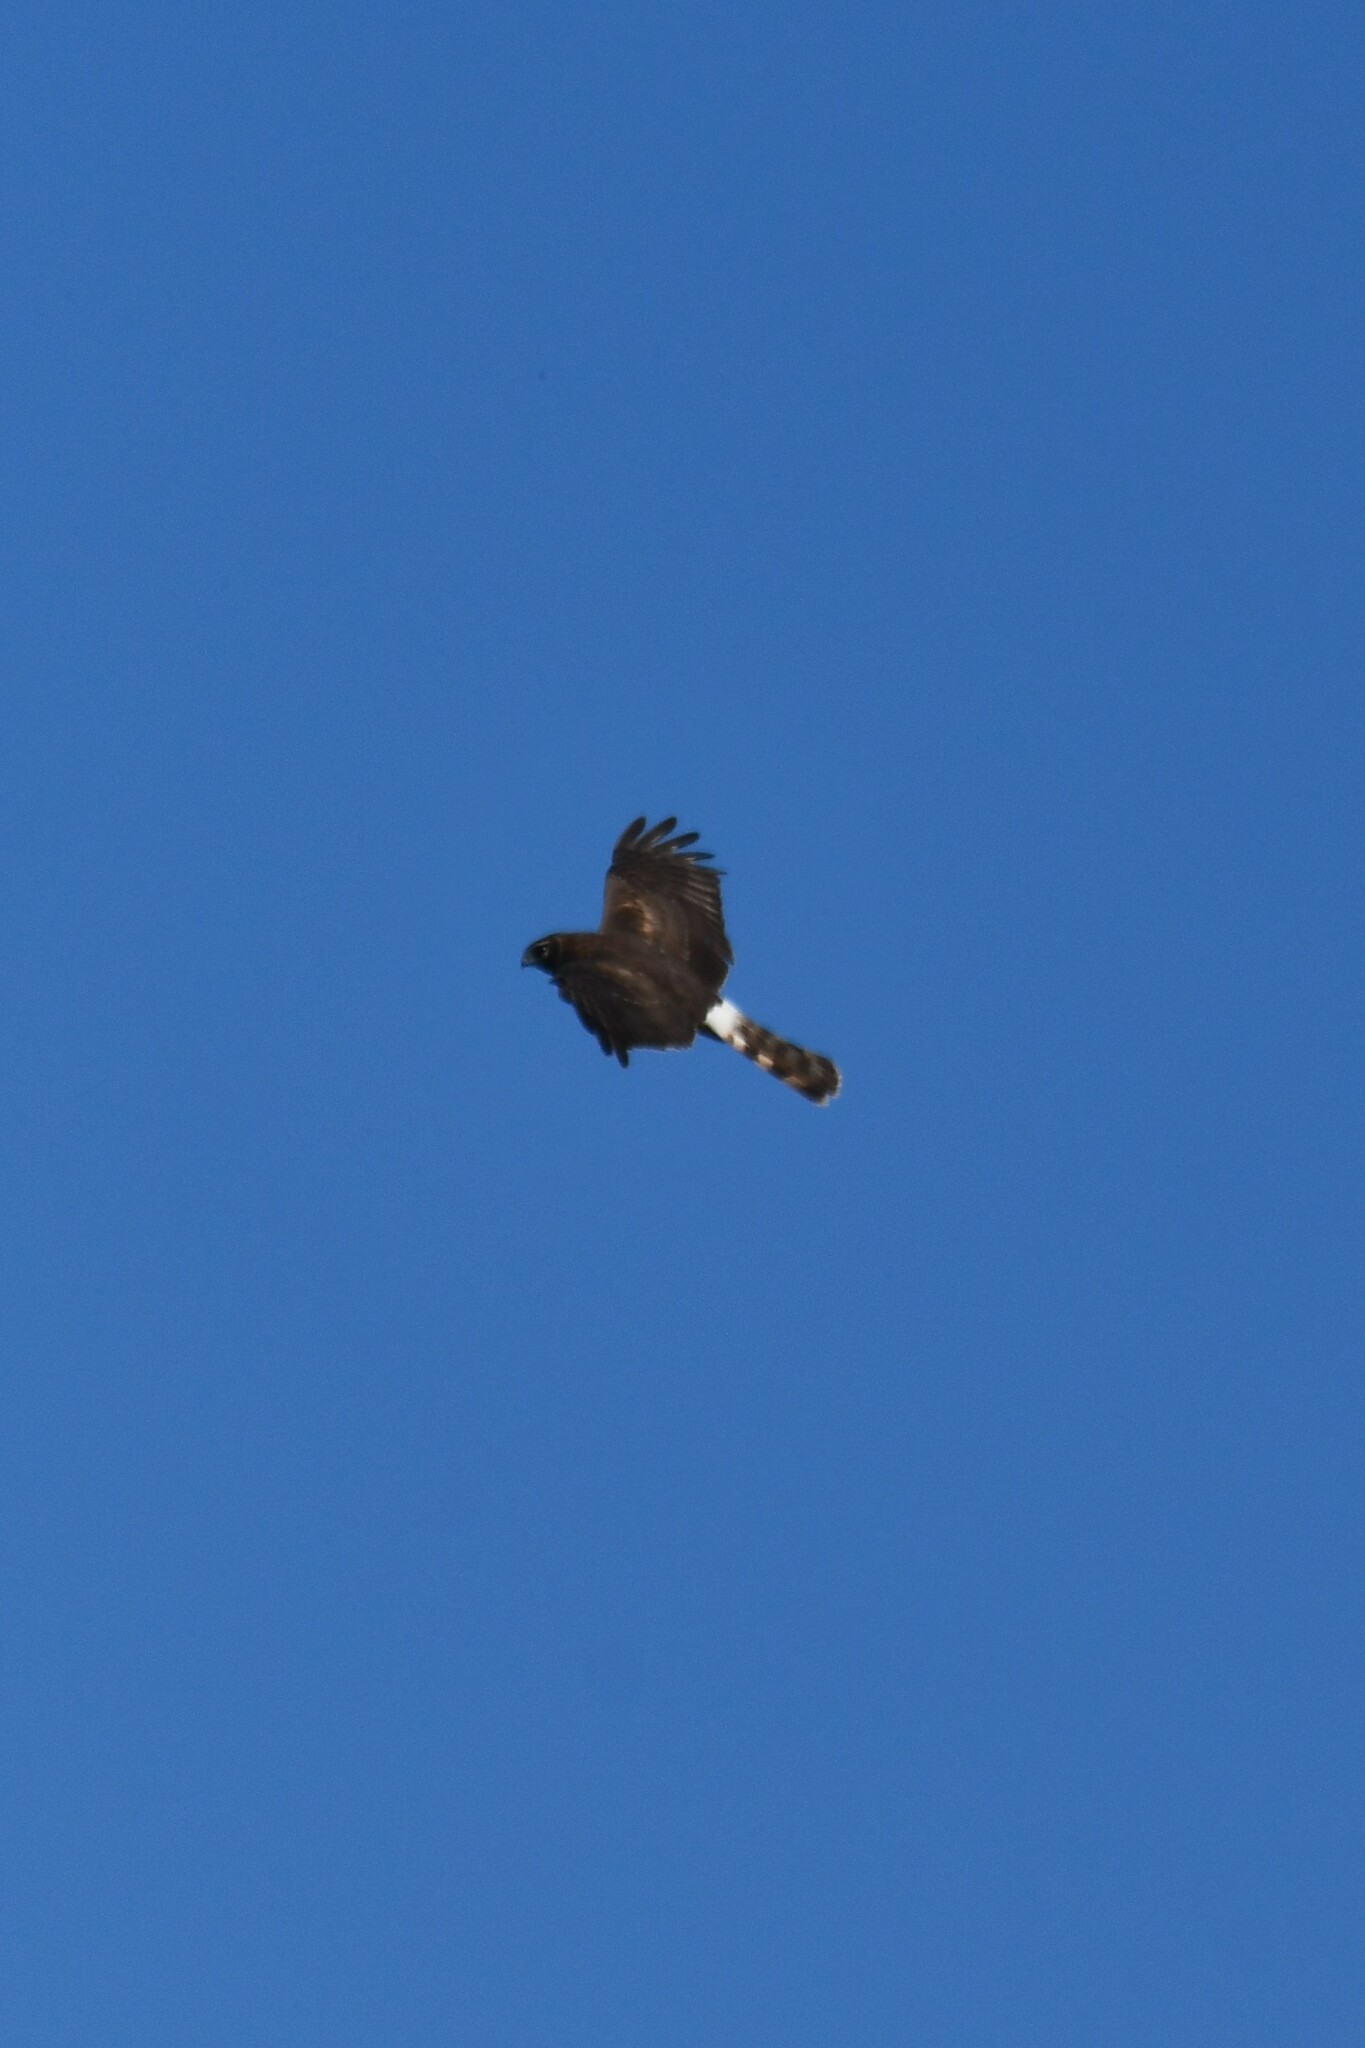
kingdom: Animalia
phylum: Chordata
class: Aves
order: Accipitriformes
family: Accipitridae
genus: Circus
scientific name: Circus cyaneus
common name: Hen harrier
